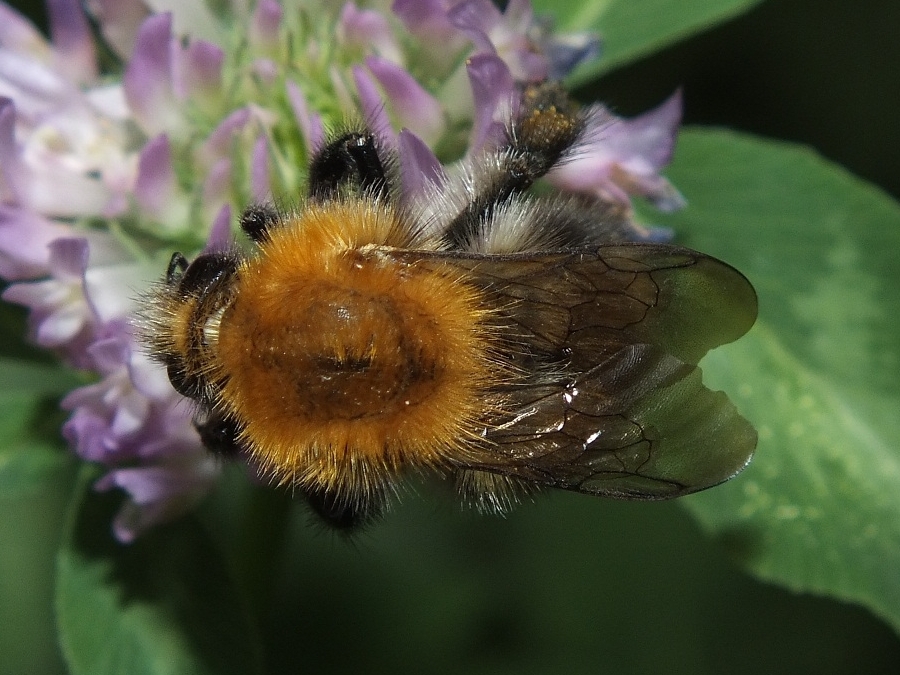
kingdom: Animalia
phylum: Arthropoda
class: Insecta
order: Hymenoptera
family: Apidae
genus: Bombus
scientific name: Bombus pascuorum
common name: Common carder bee
